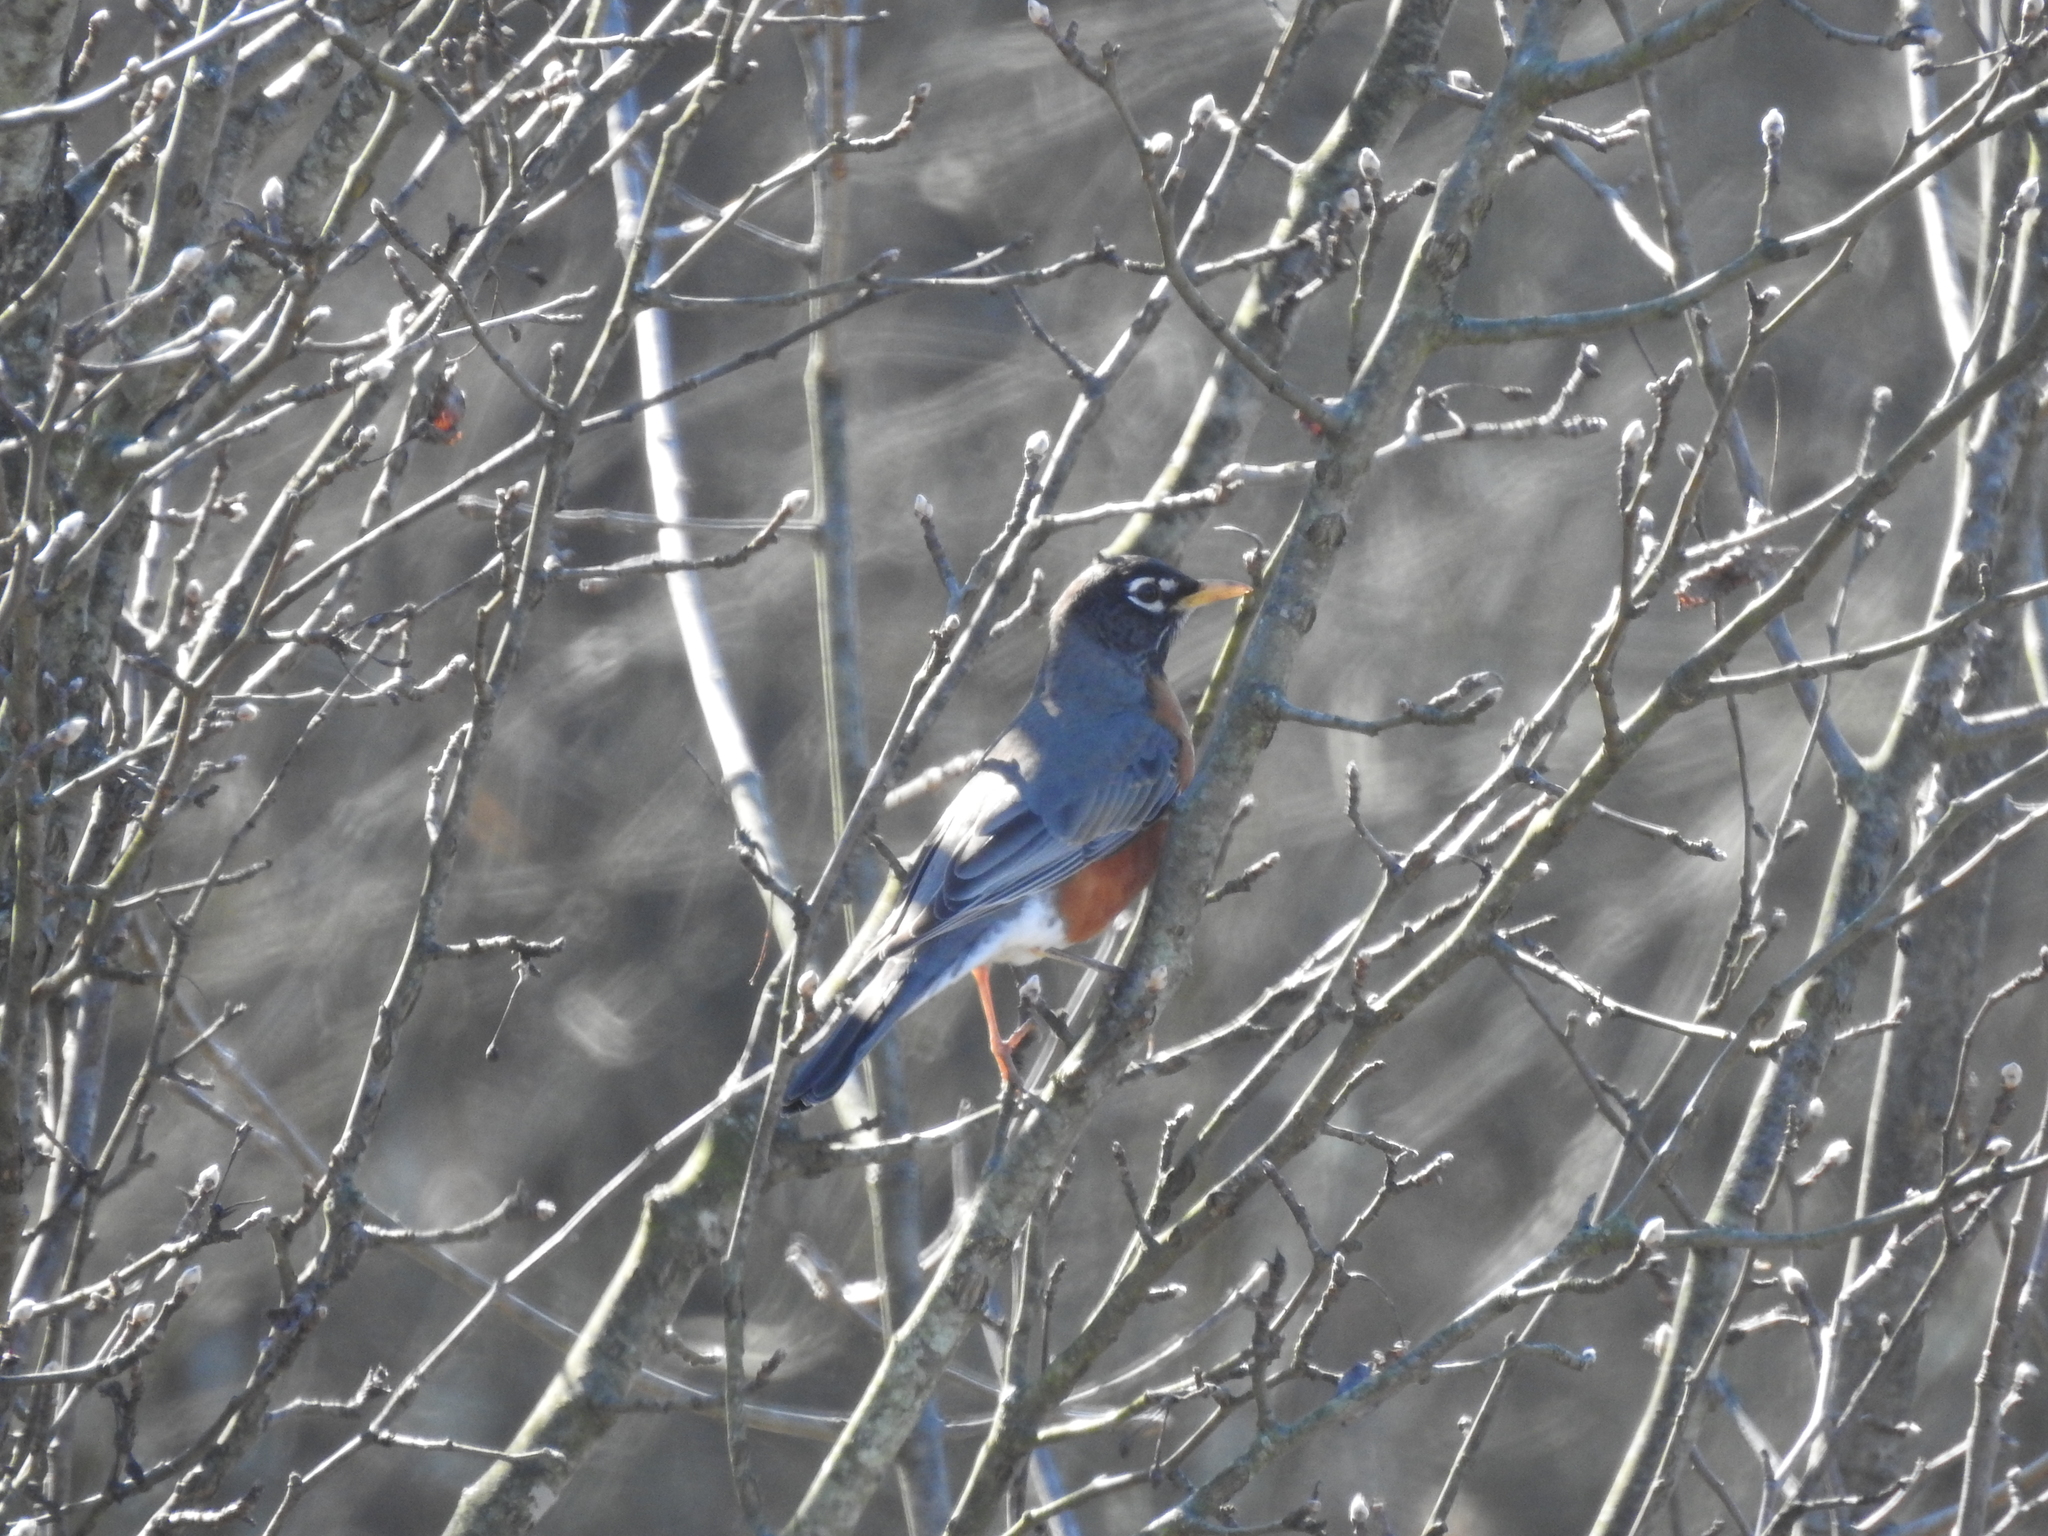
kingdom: Animalia
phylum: Chordata
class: Aves
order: Passeriformes
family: Turdidae
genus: Turdus
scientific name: Turdus migratorius
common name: American robin
